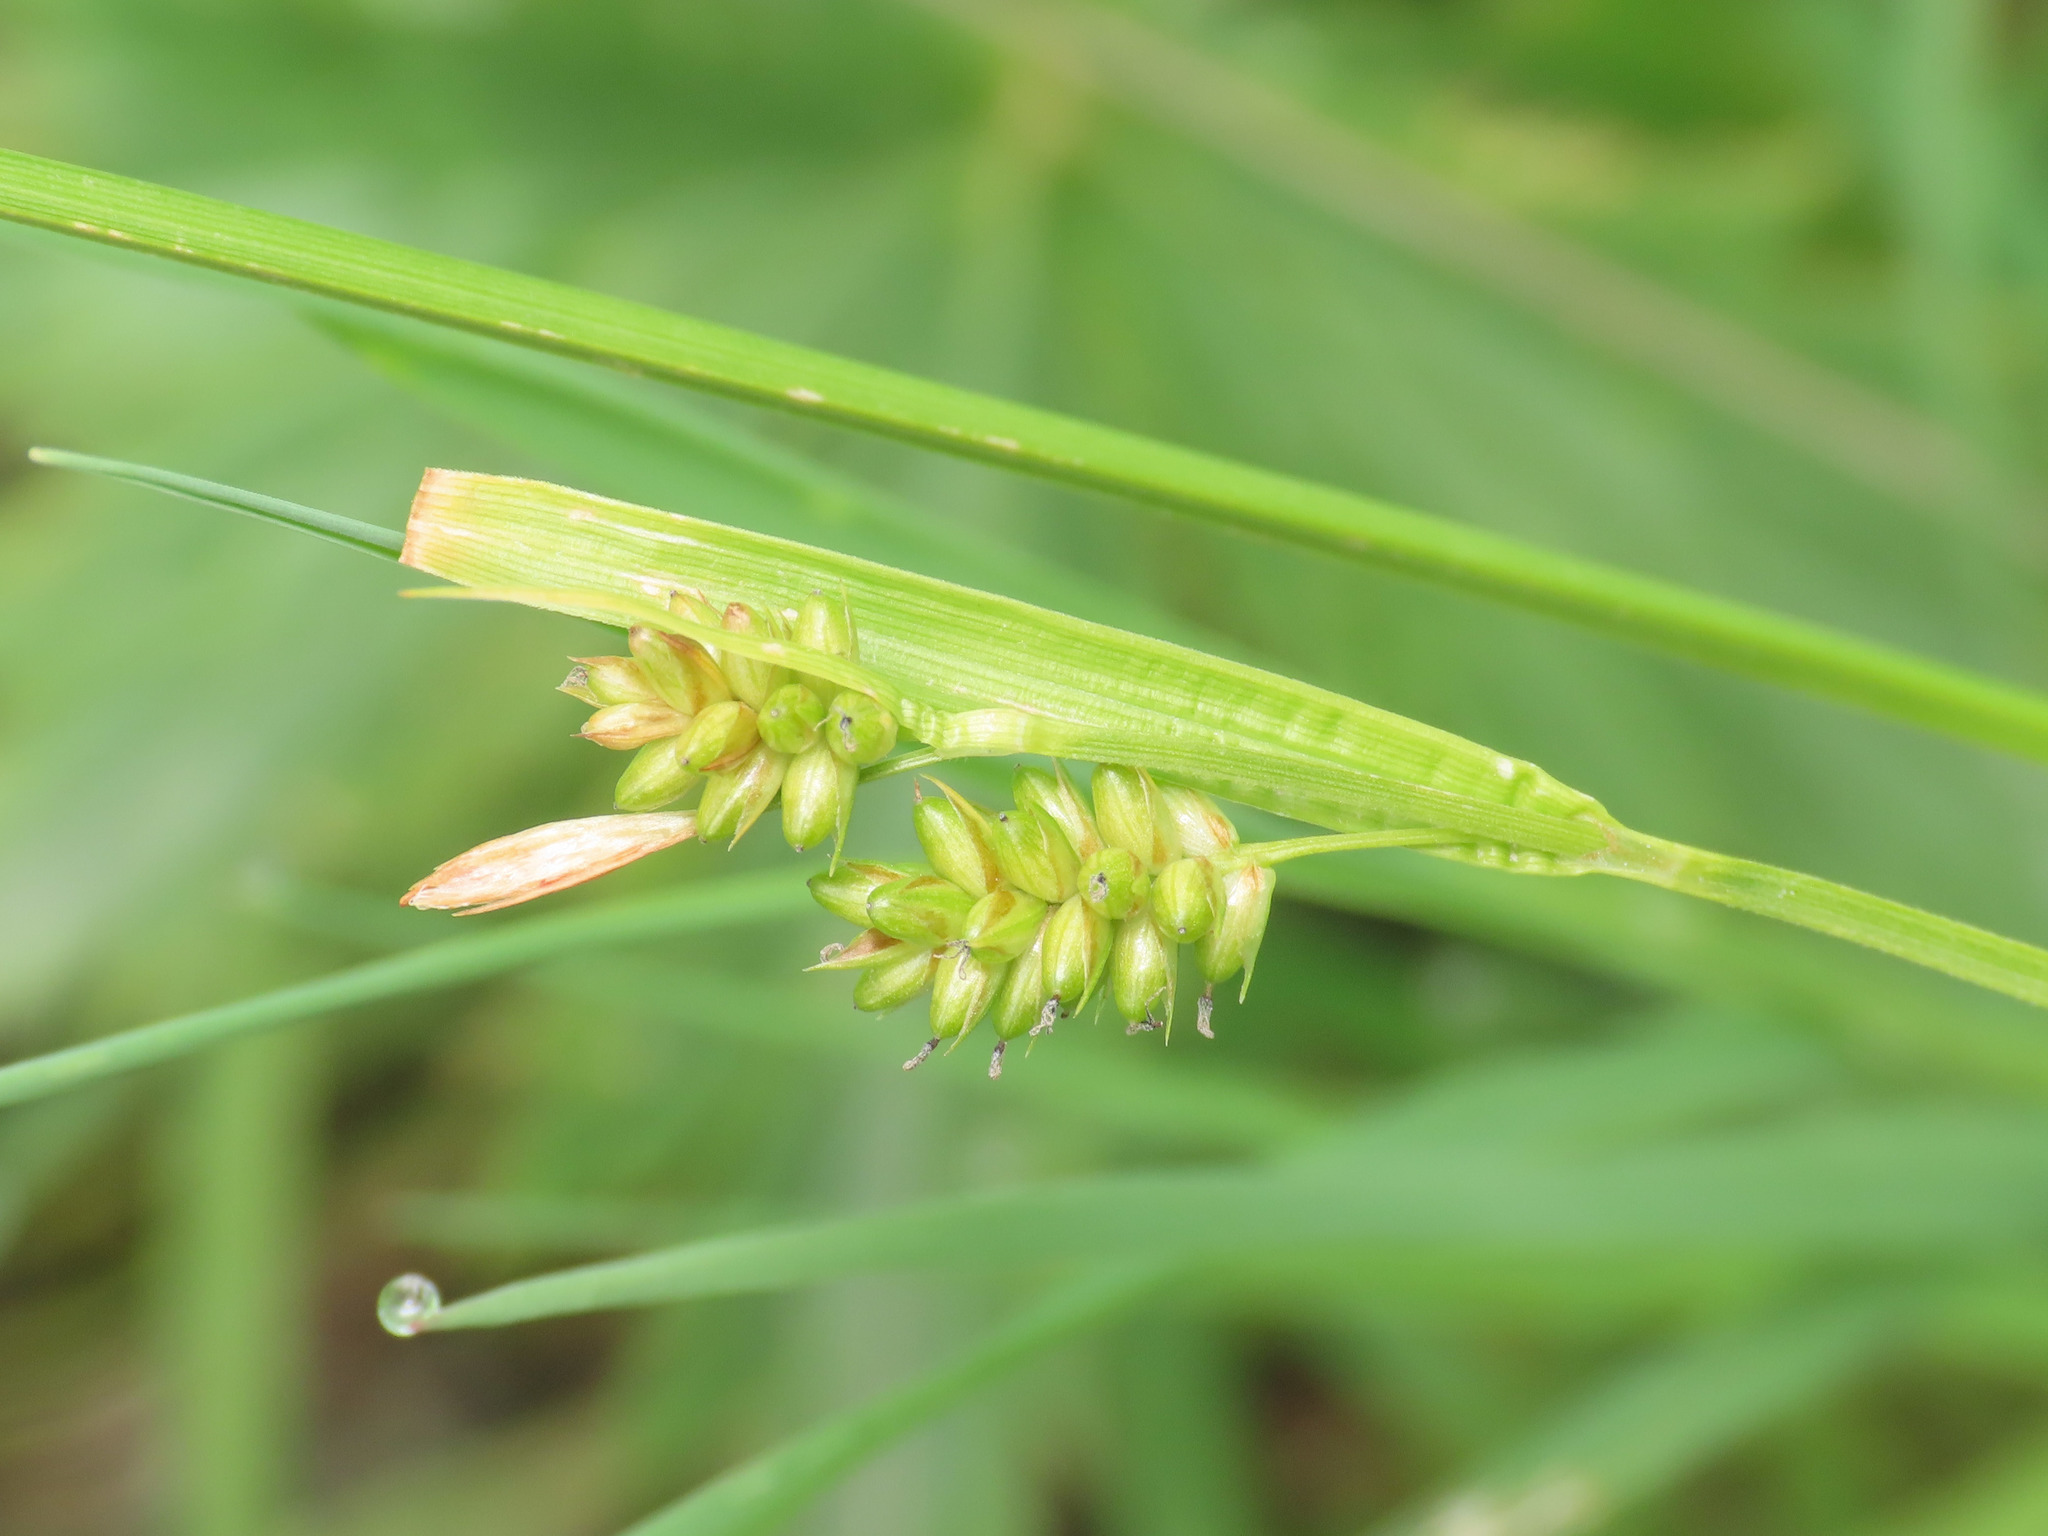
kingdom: Plantae
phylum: Tracheophyta
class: Liliopsida
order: Poales
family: Cyperaceae
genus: Carex
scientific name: Carex pallescens
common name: Pale sedge
